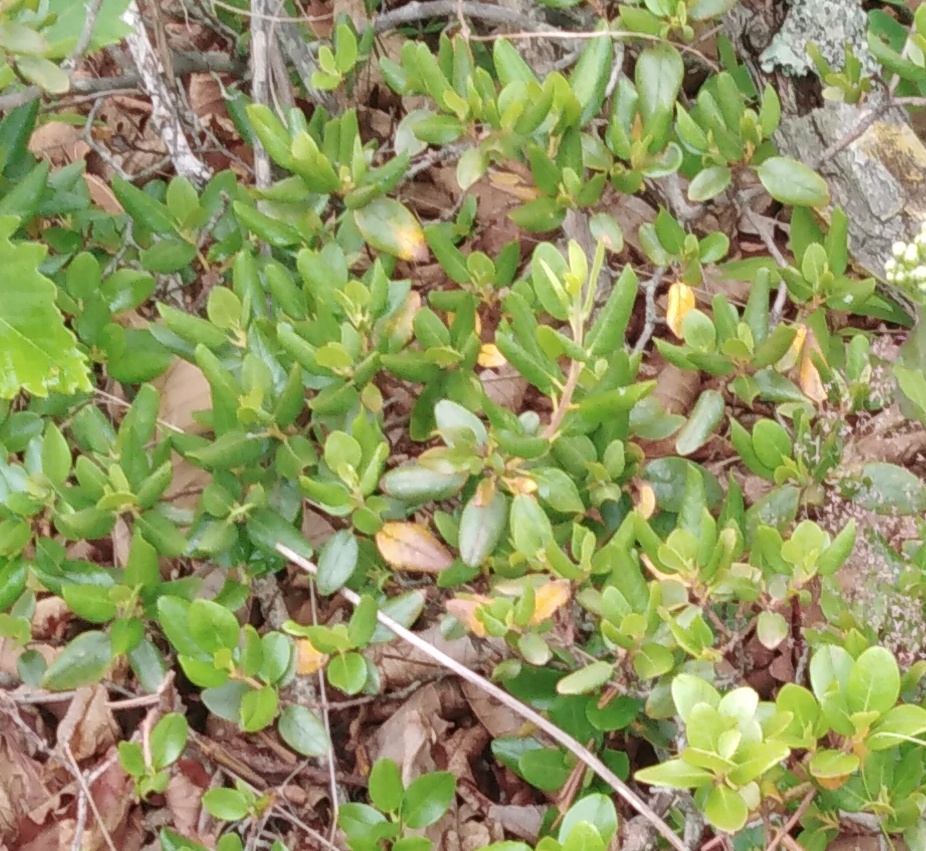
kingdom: Plantae
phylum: Tracheophyta
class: Magnoliopsida
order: Ericales
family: Ericaceae
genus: Rhododendron
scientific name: Rhododendron sichotense
